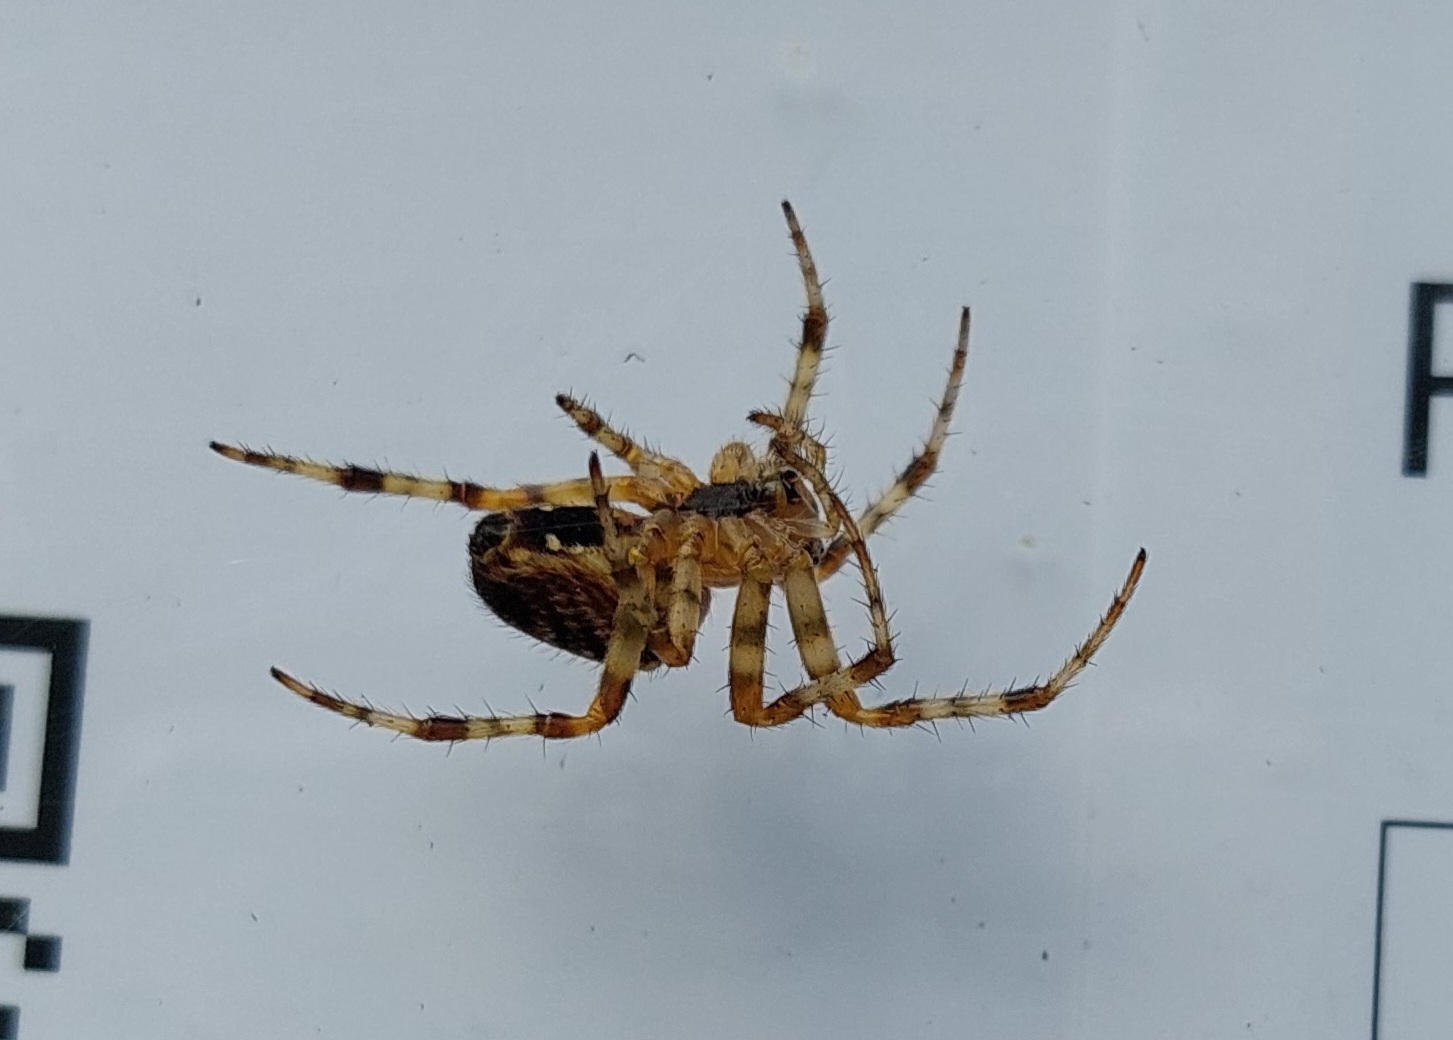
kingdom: Animalia
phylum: Arthropoda
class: Arachnida
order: Araneae
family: Araneidae
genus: Araneus
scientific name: Araneus diadematus
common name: Cross orbweaver
